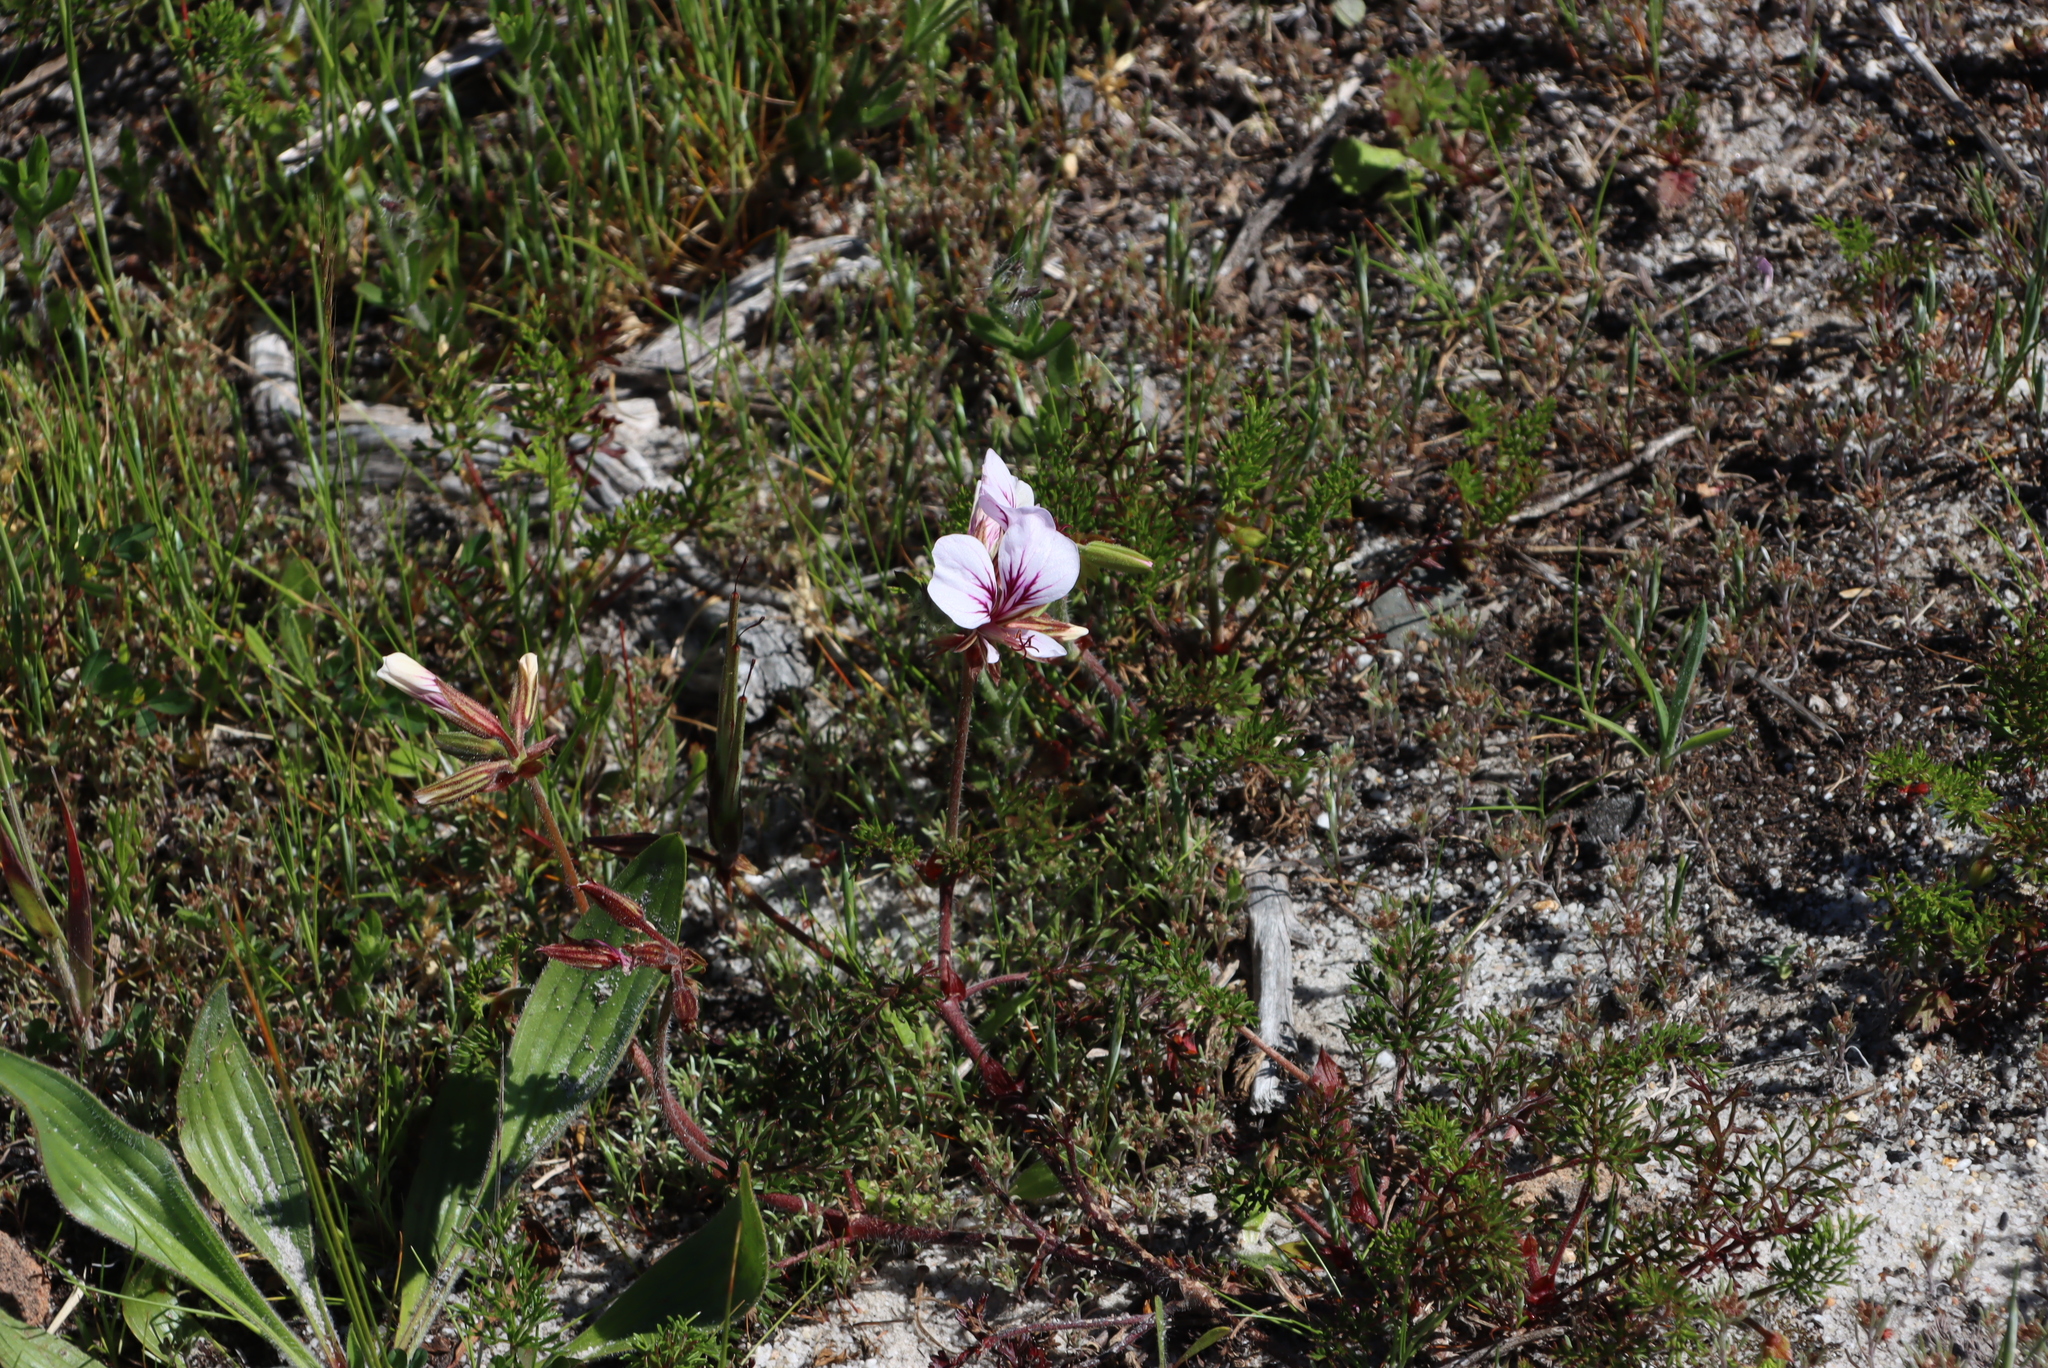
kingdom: Plantae
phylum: Tracheophyta
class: Magnoliopsida
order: Geraniales
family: Geraniaceae
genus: Pelargonium
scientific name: Pelargonium myrrhifolium
